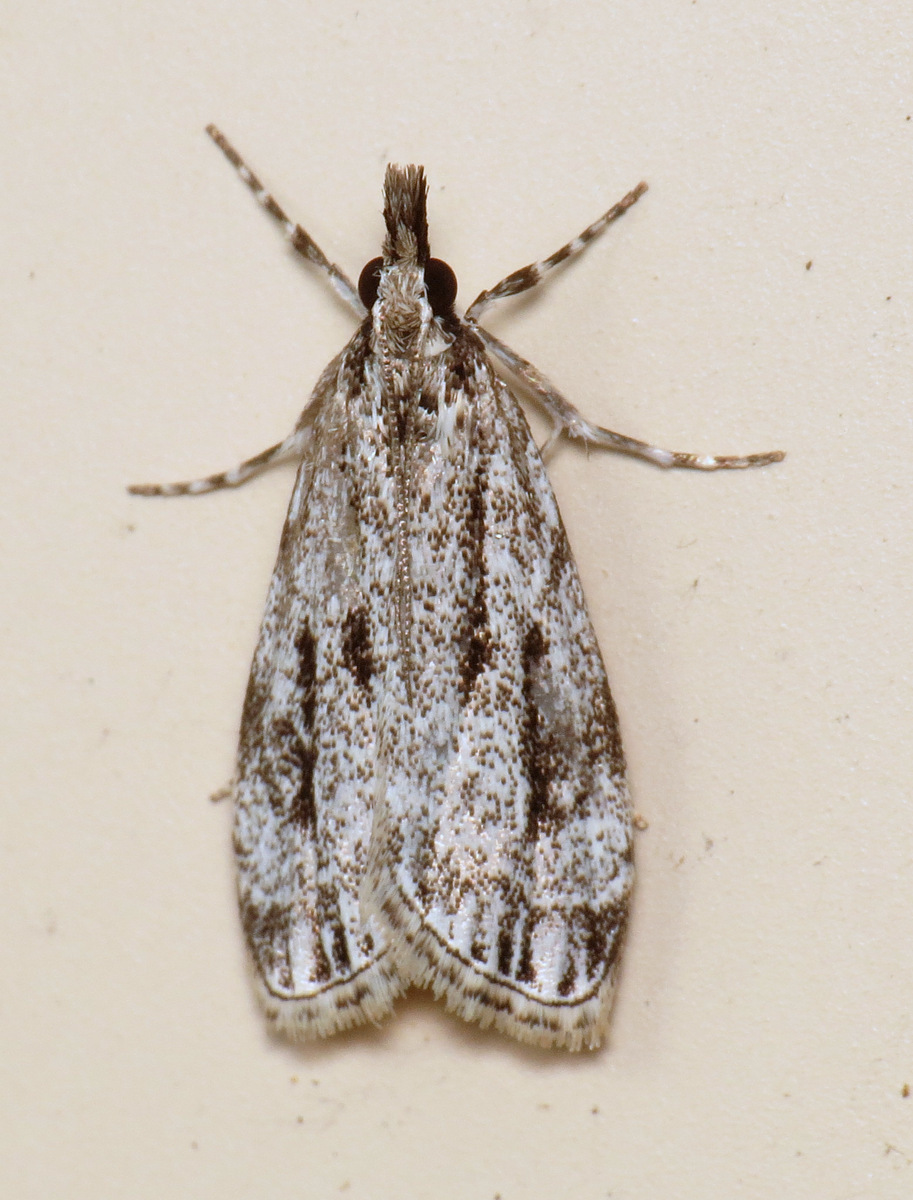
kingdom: Animalia
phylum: Arthropoda
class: Insecta
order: Lepidoptera
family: Crambidae
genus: Eudonia
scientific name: Eudonia strigalis
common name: Striped eudonia moth
